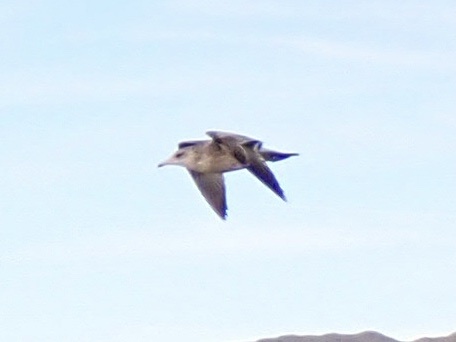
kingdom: Animalia
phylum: Chordata
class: Aves
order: Charadriiformes
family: Laridae
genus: Larus
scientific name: Larus
